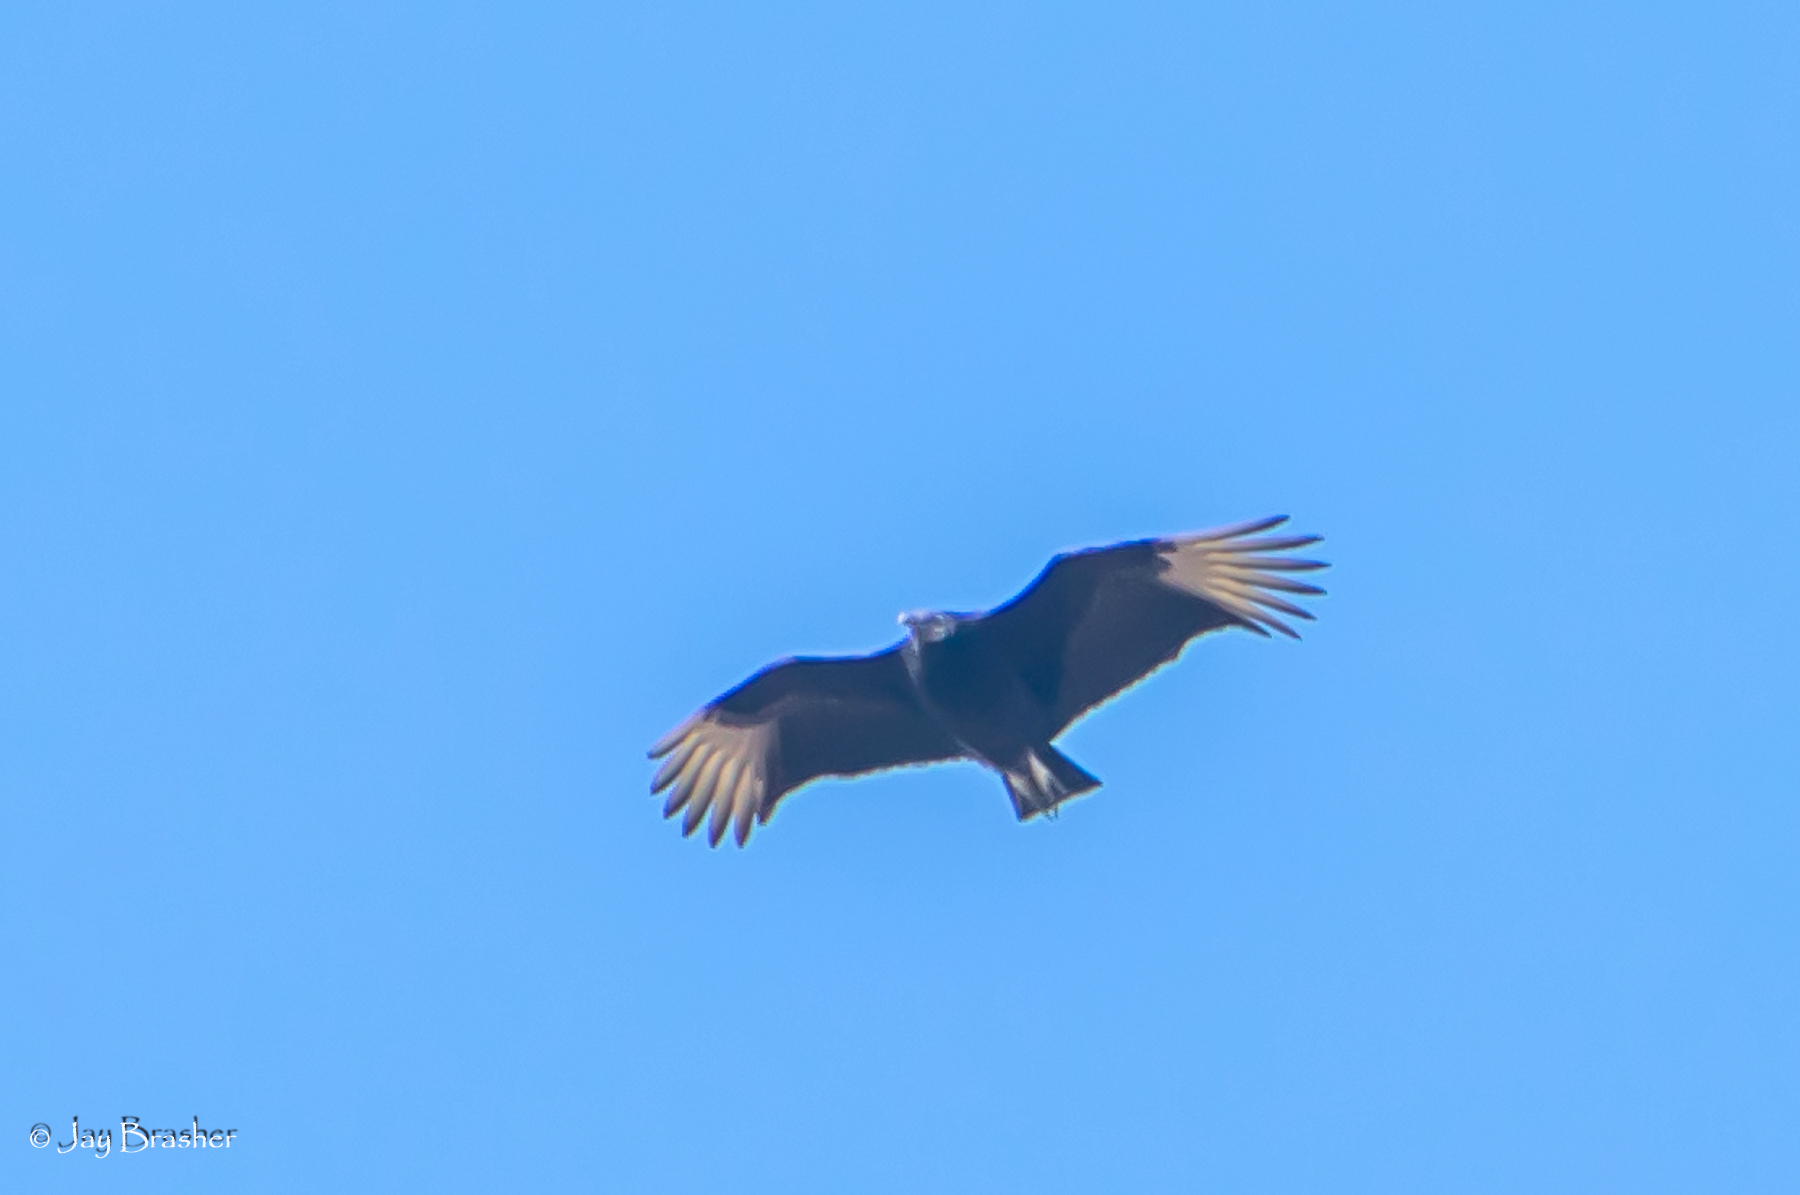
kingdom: Animalia
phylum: Chordata
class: Aves
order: Accipitriformes
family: Cathartidae
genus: Coragyps
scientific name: Coragyps atratus
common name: Black vulture
